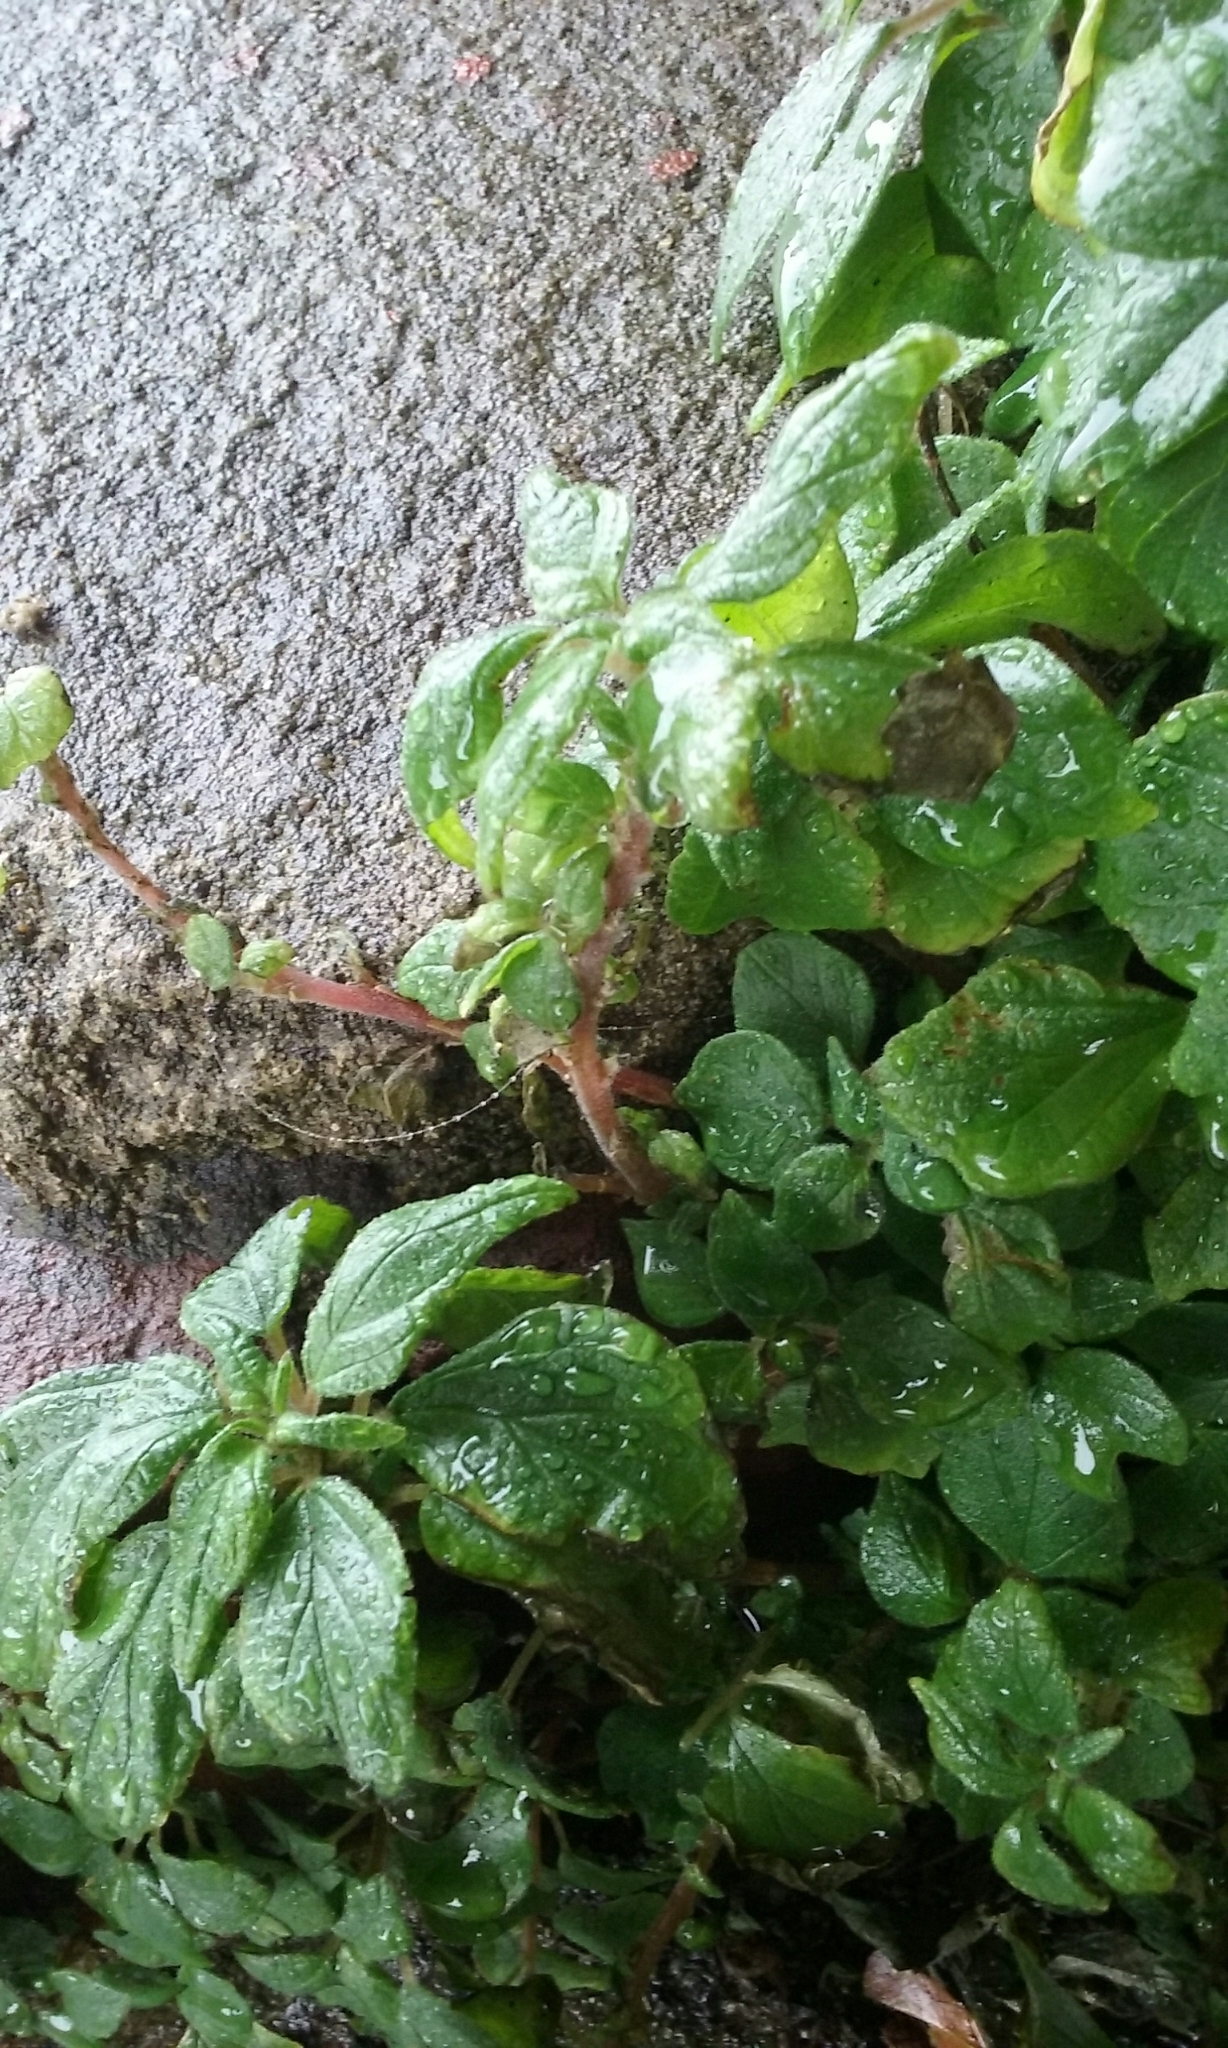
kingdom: Plantae
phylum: Tracheophyta
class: Magnoliopsida
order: Rosales
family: Urticaceae
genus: Parietaria
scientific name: Parietaria judaica
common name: Pellitory-of-the-wall
